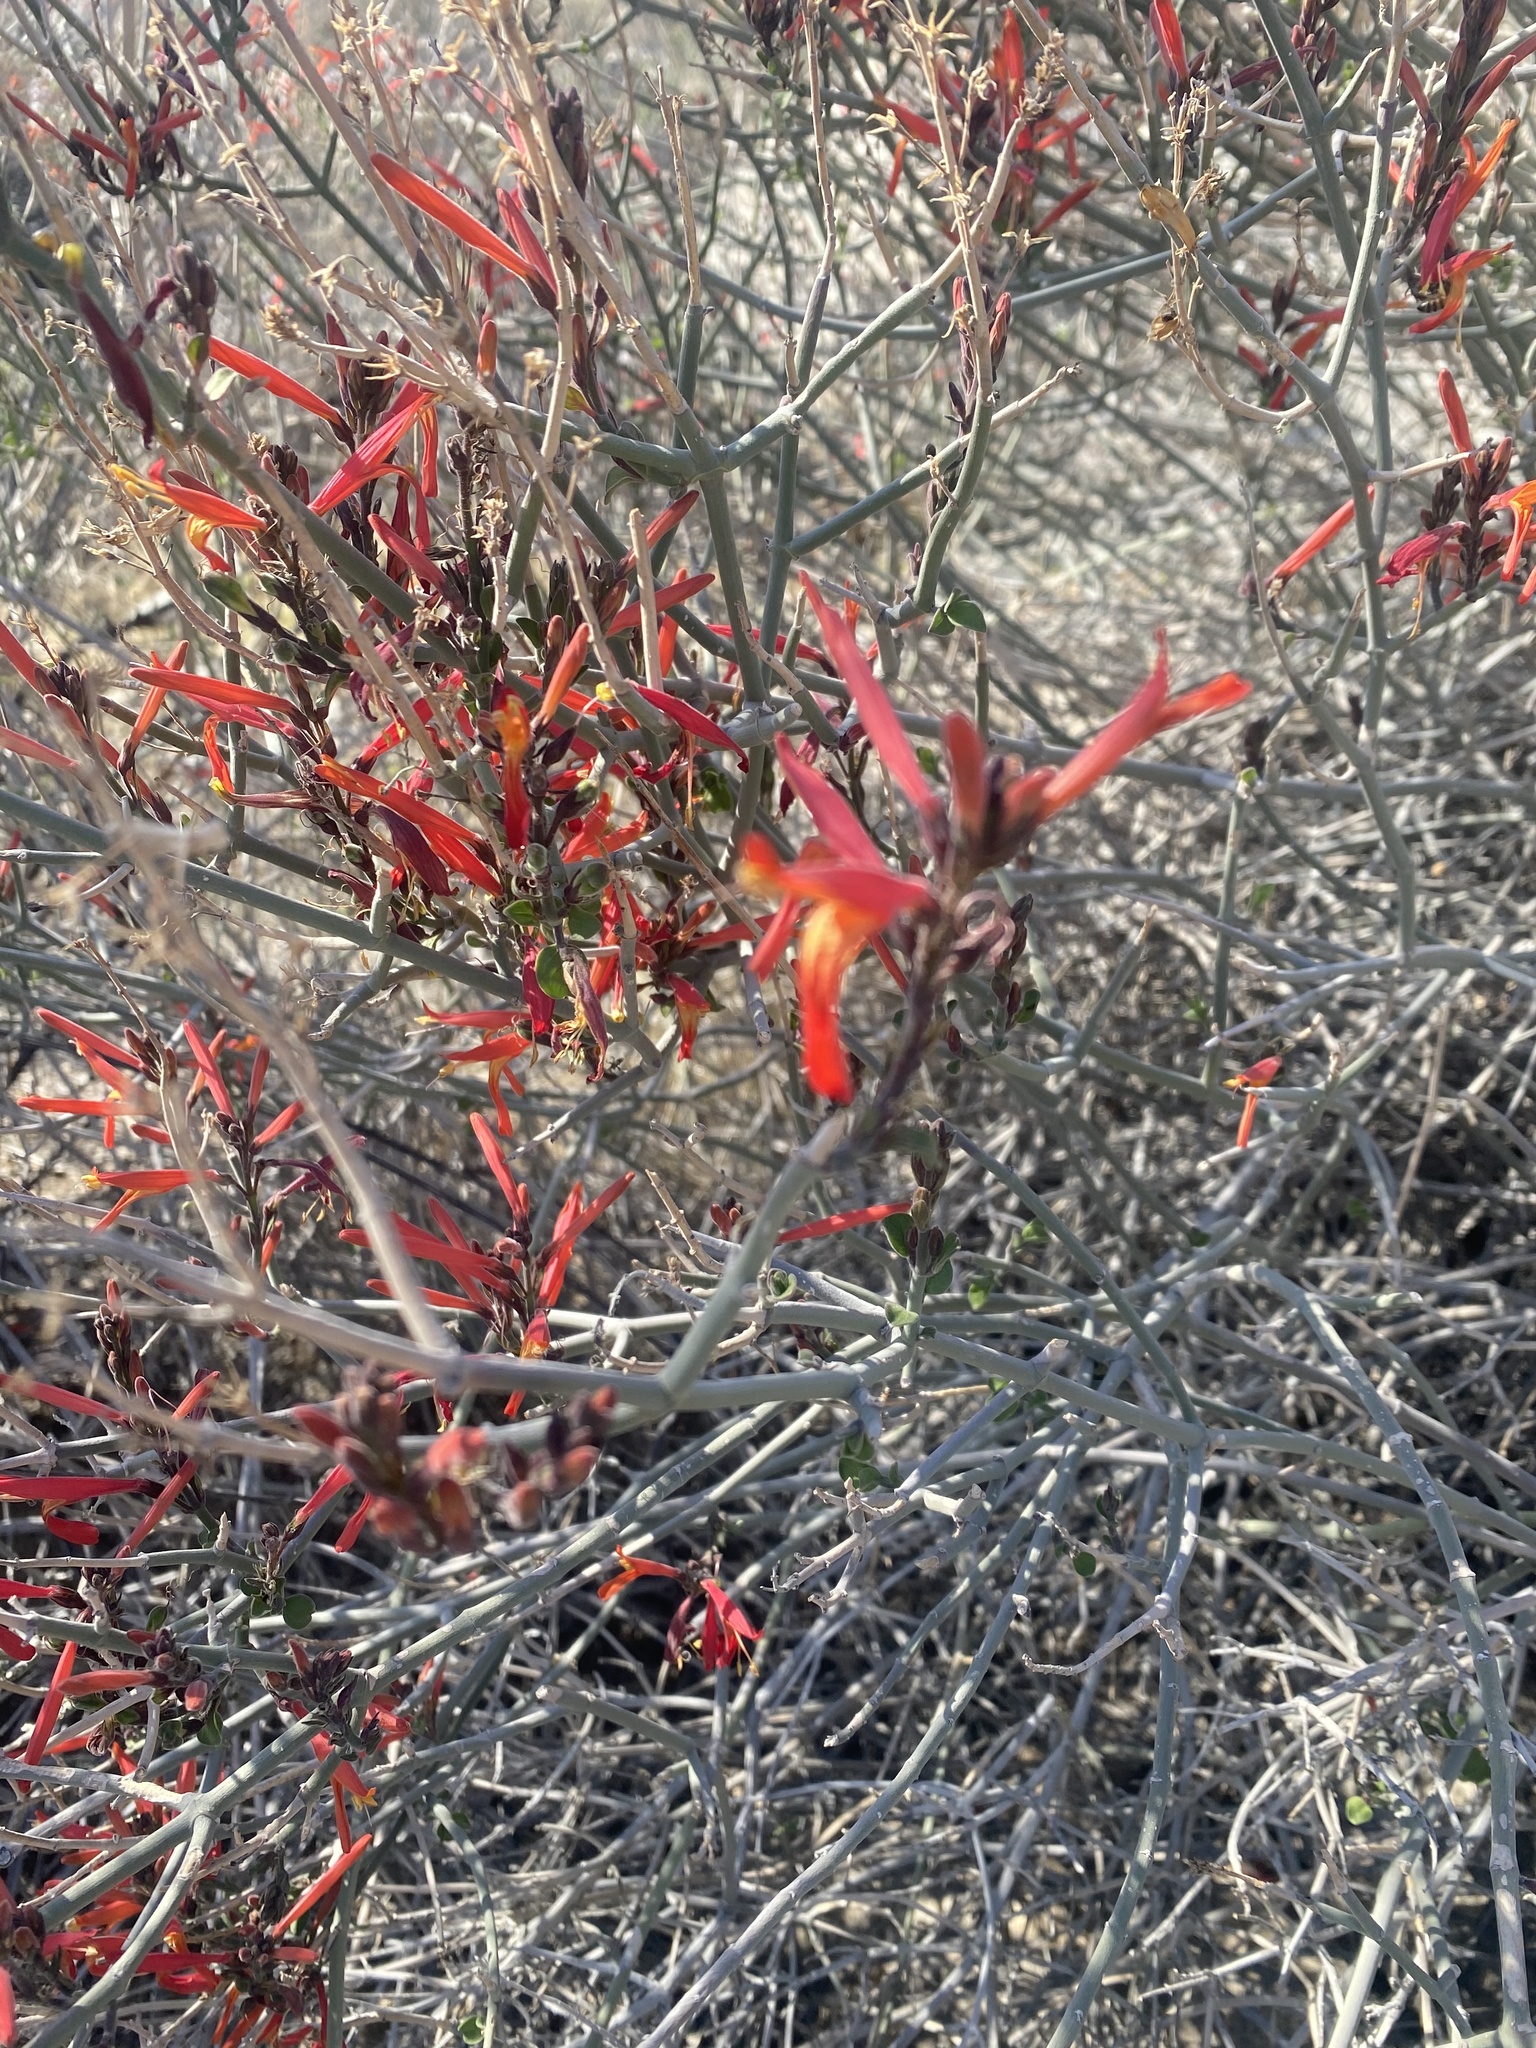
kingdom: Plantae
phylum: Tracheophyta
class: Magnoliopsida
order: Lamiales
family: Acanthaceae
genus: Justicia
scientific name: Justicia californica
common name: Chuparosa-honeysuckle
